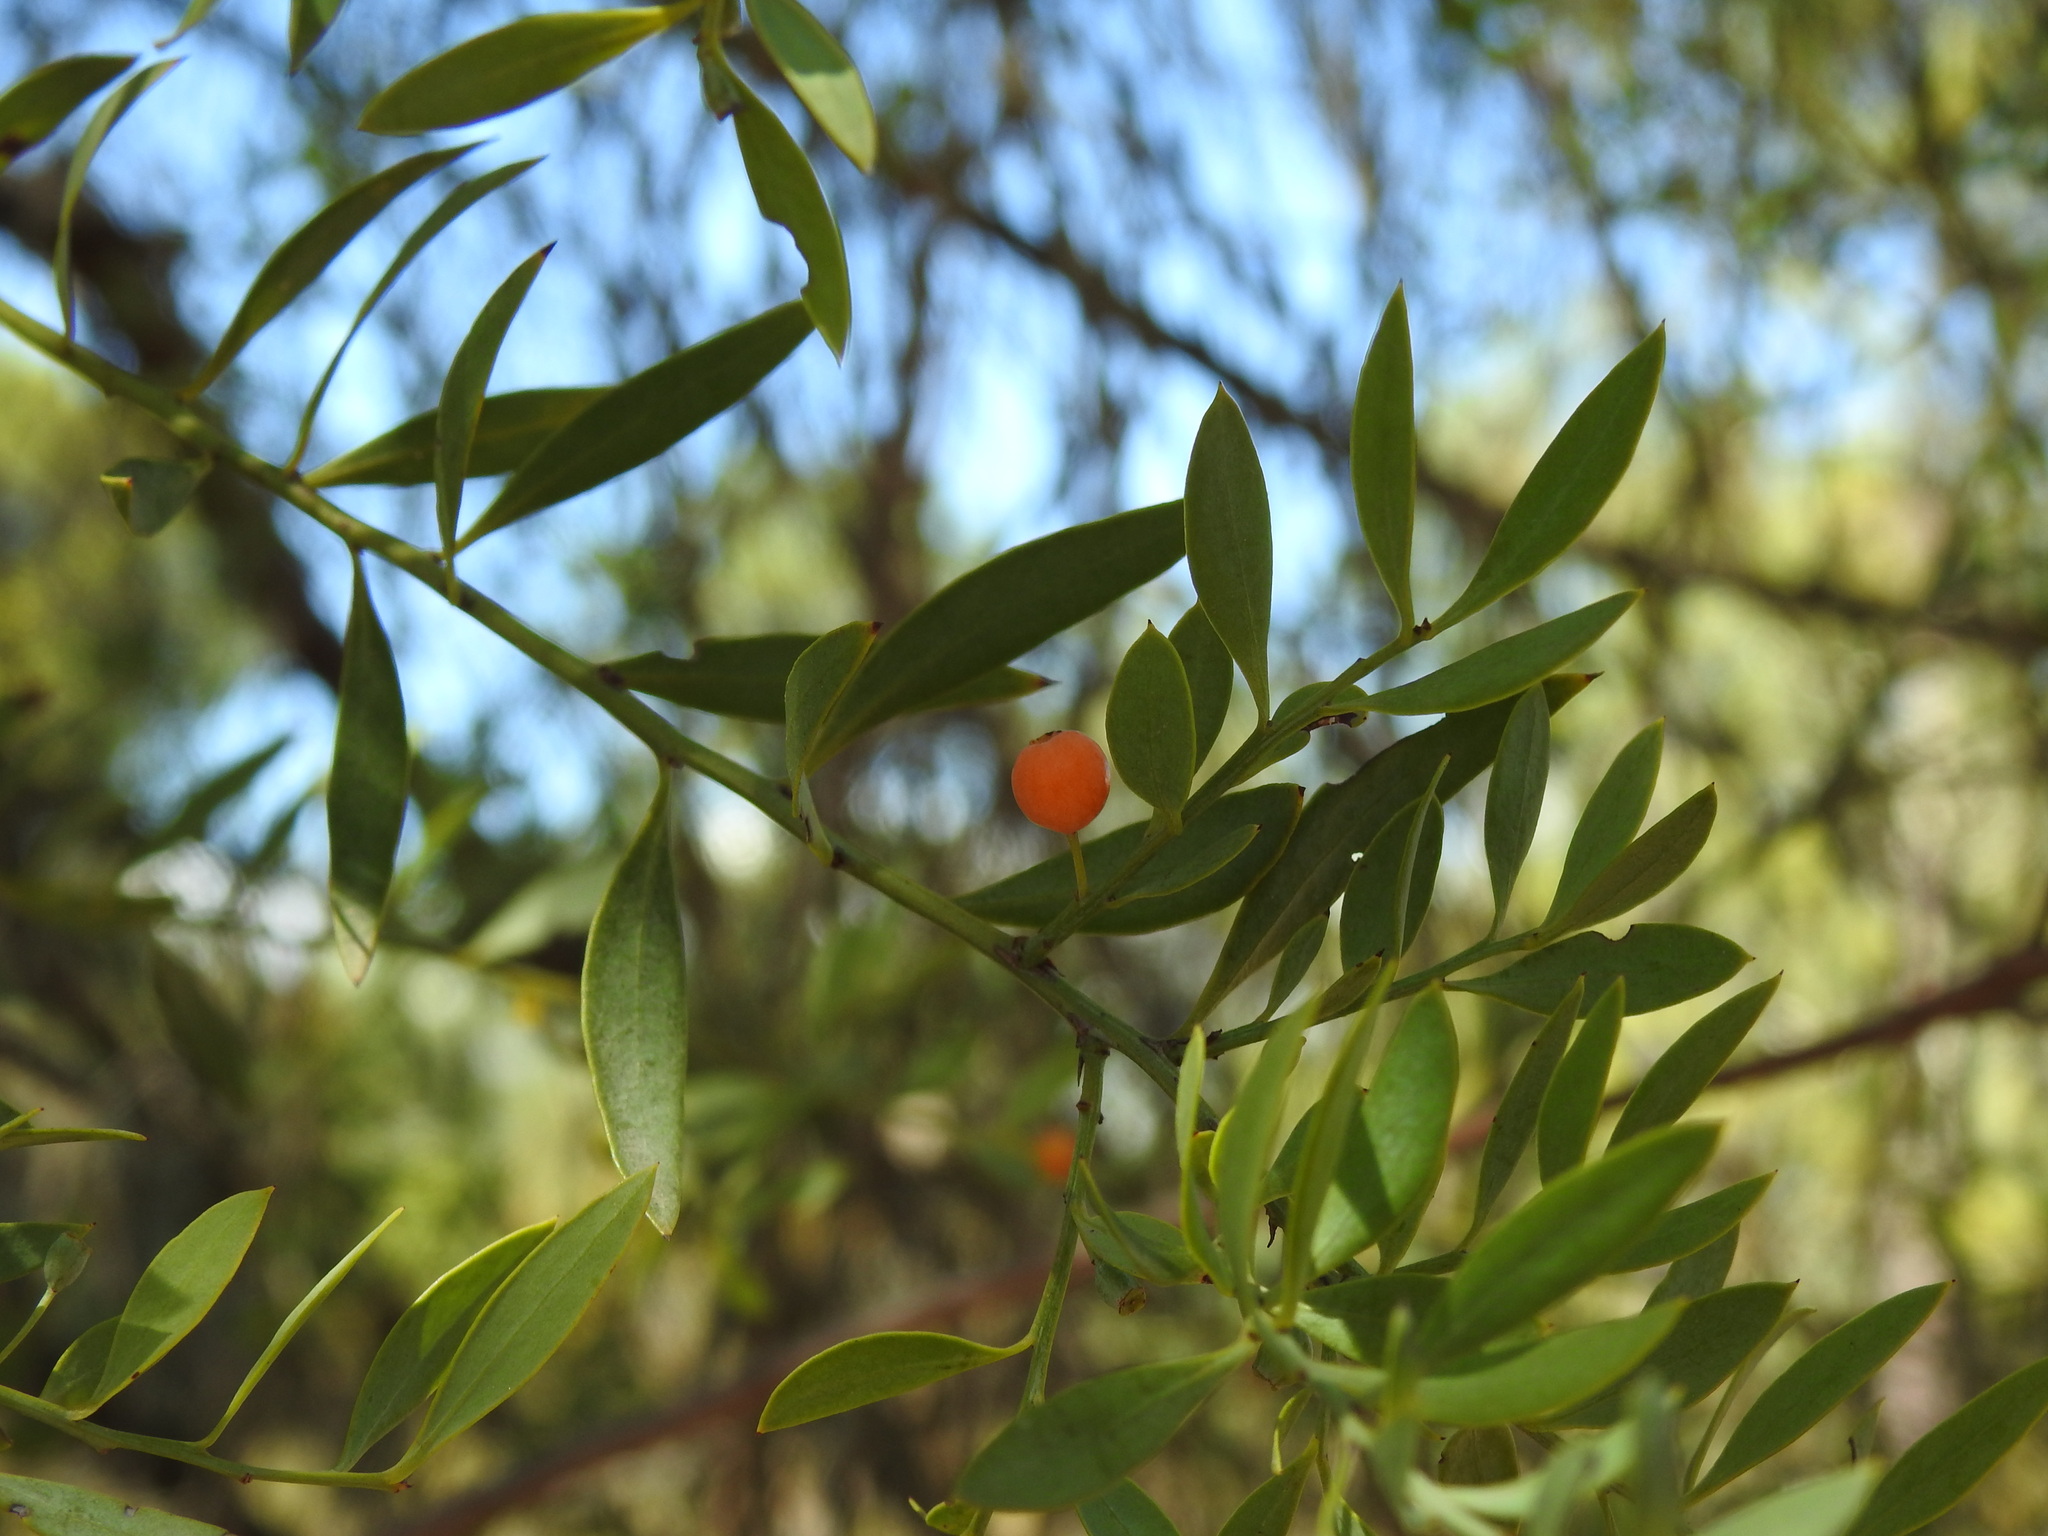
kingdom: Plantae
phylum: Tracheophyta
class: Magnoliopsida
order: Santalales
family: Santalaceae
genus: Osyris
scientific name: Osyris lanceolata
